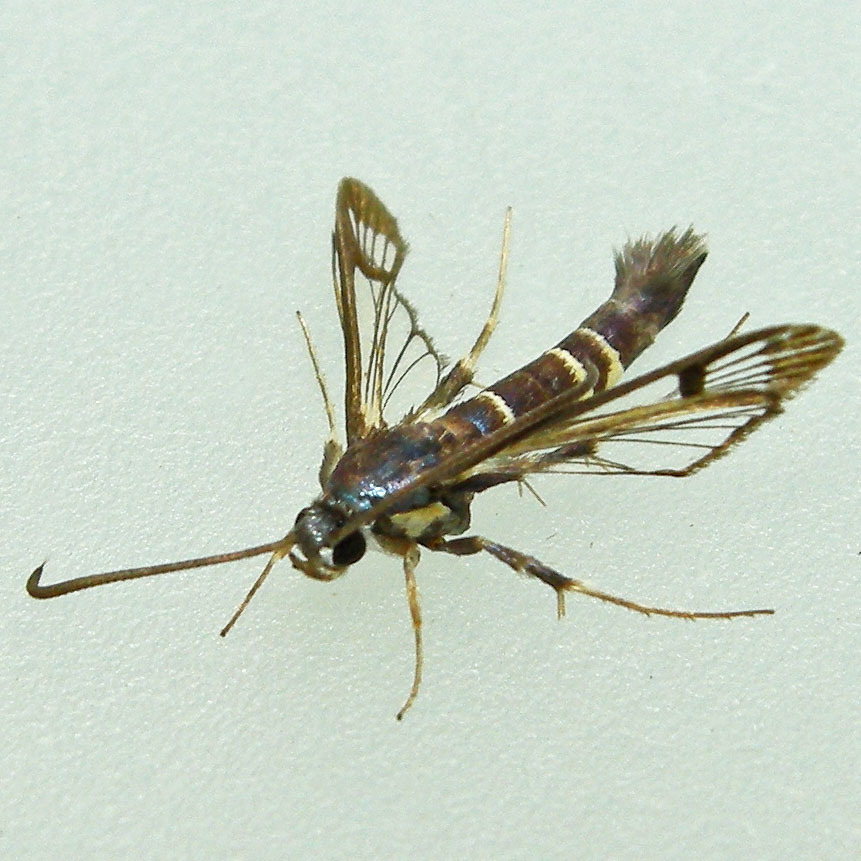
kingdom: Animalia
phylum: Arthropoda
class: Insecta
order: Lepidoptera
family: Sesiidae
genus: Synanthedon
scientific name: Synanthedon rhododendri
